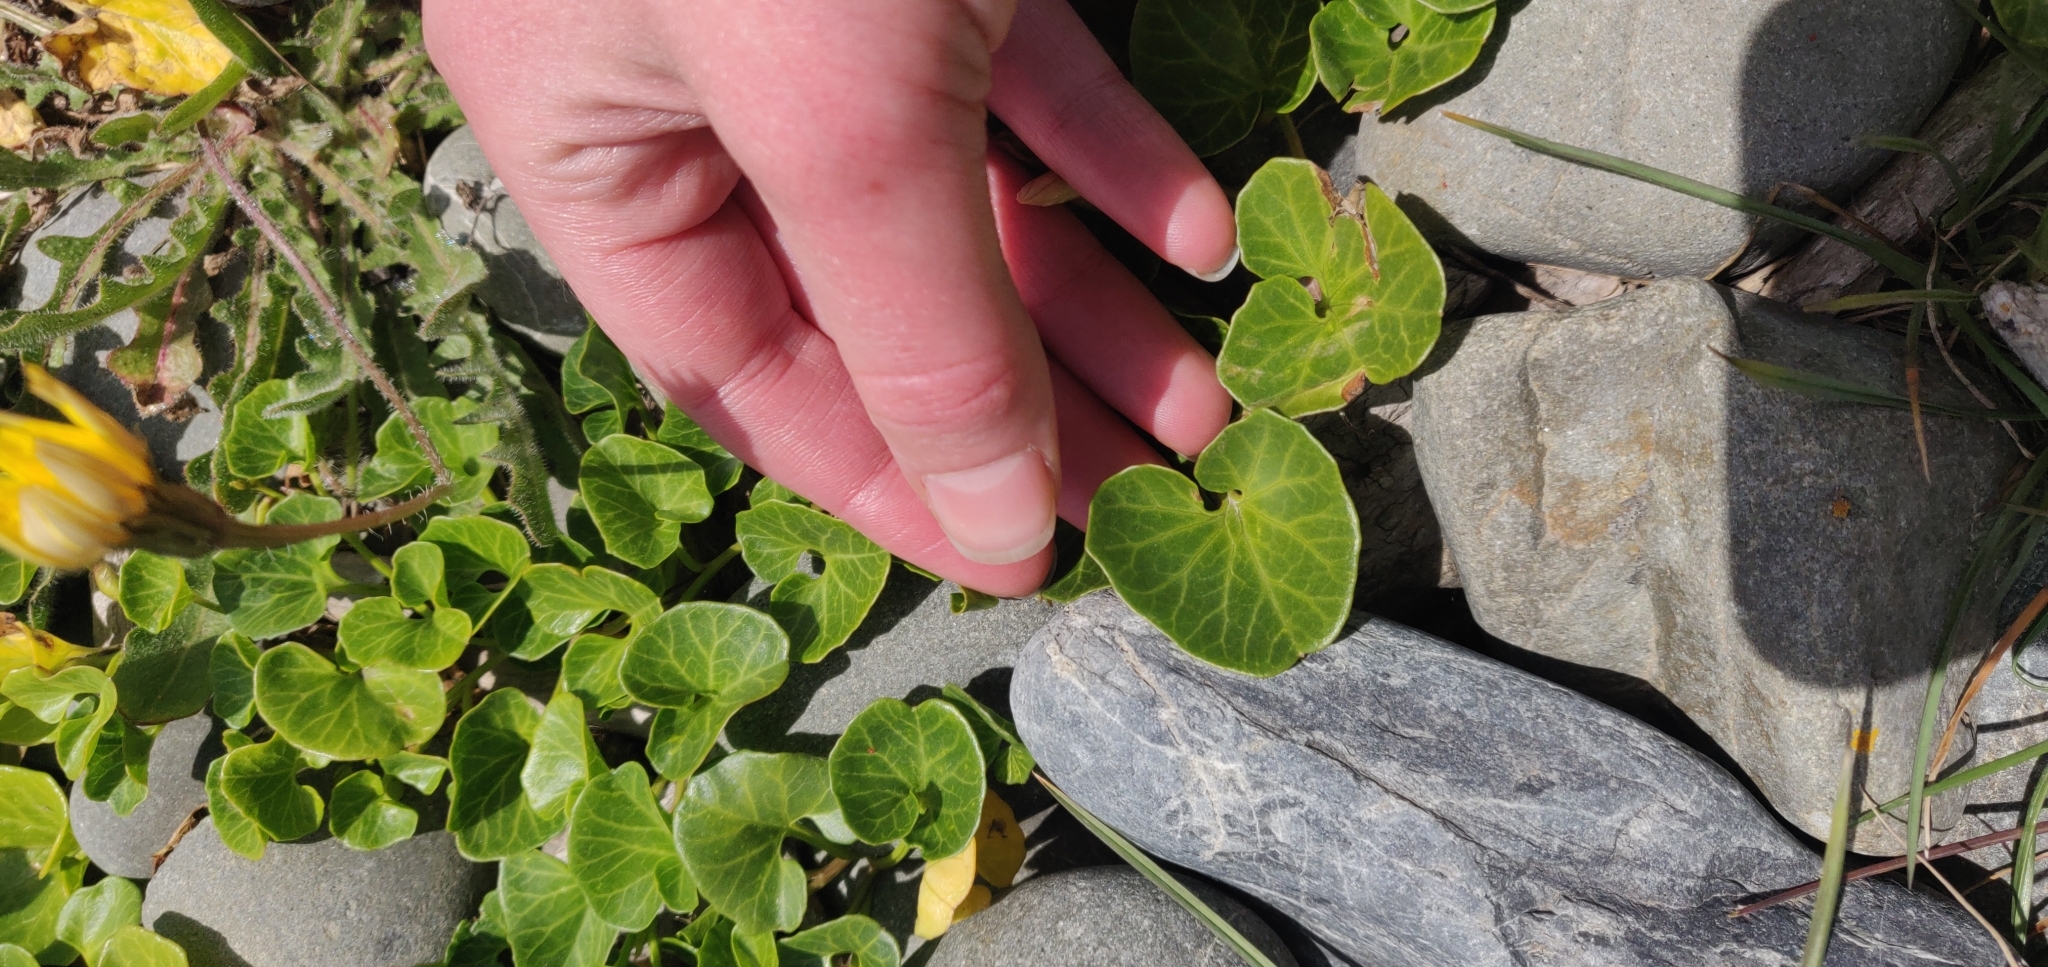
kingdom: Plantae
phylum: Tracheophyta
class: Magnoliopsida
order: Solanales
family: Convolvulaceae
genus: Calystegia
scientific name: Calystegia soldanella
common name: Sea bindweed
